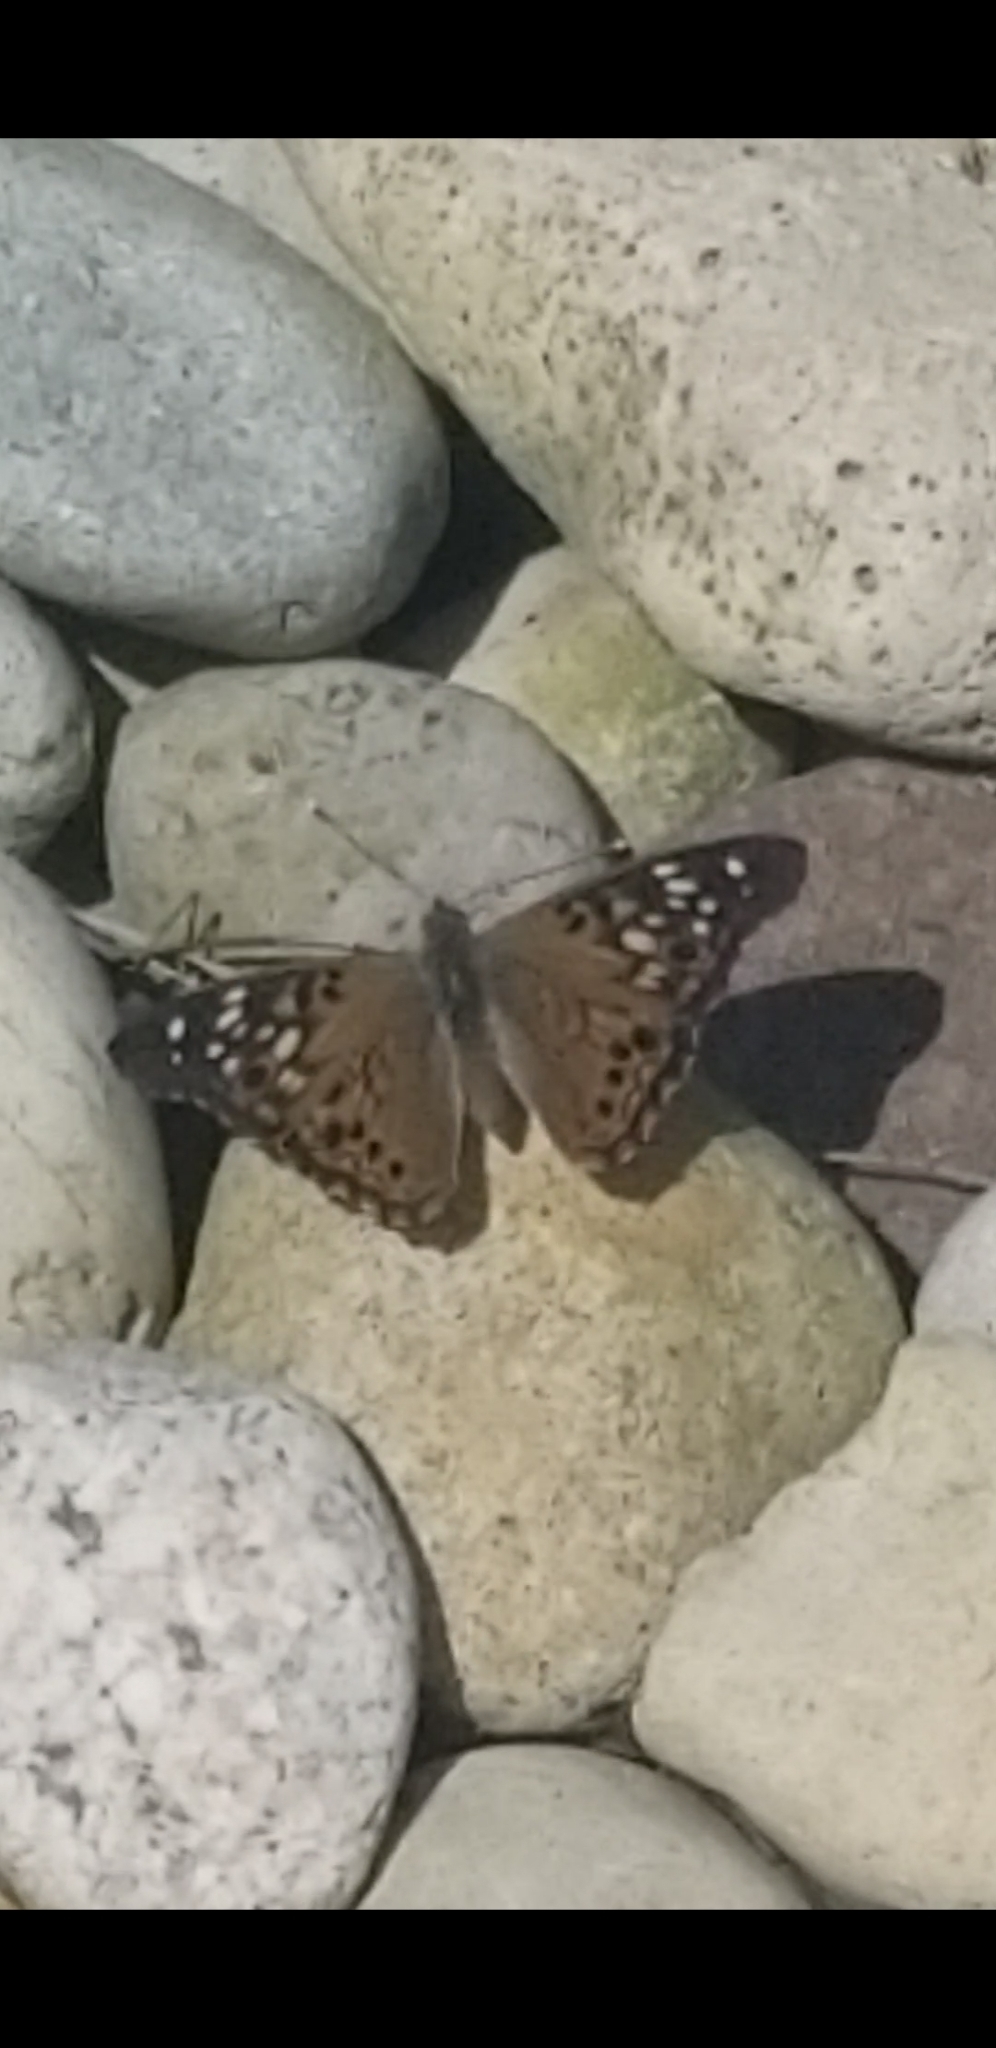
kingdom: Animalia
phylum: Arthropoda
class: Insecta
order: Lepidoptera
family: Nymphalidae
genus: Asterocampa
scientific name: Asterocampa celtis
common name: Hackberry emperor
